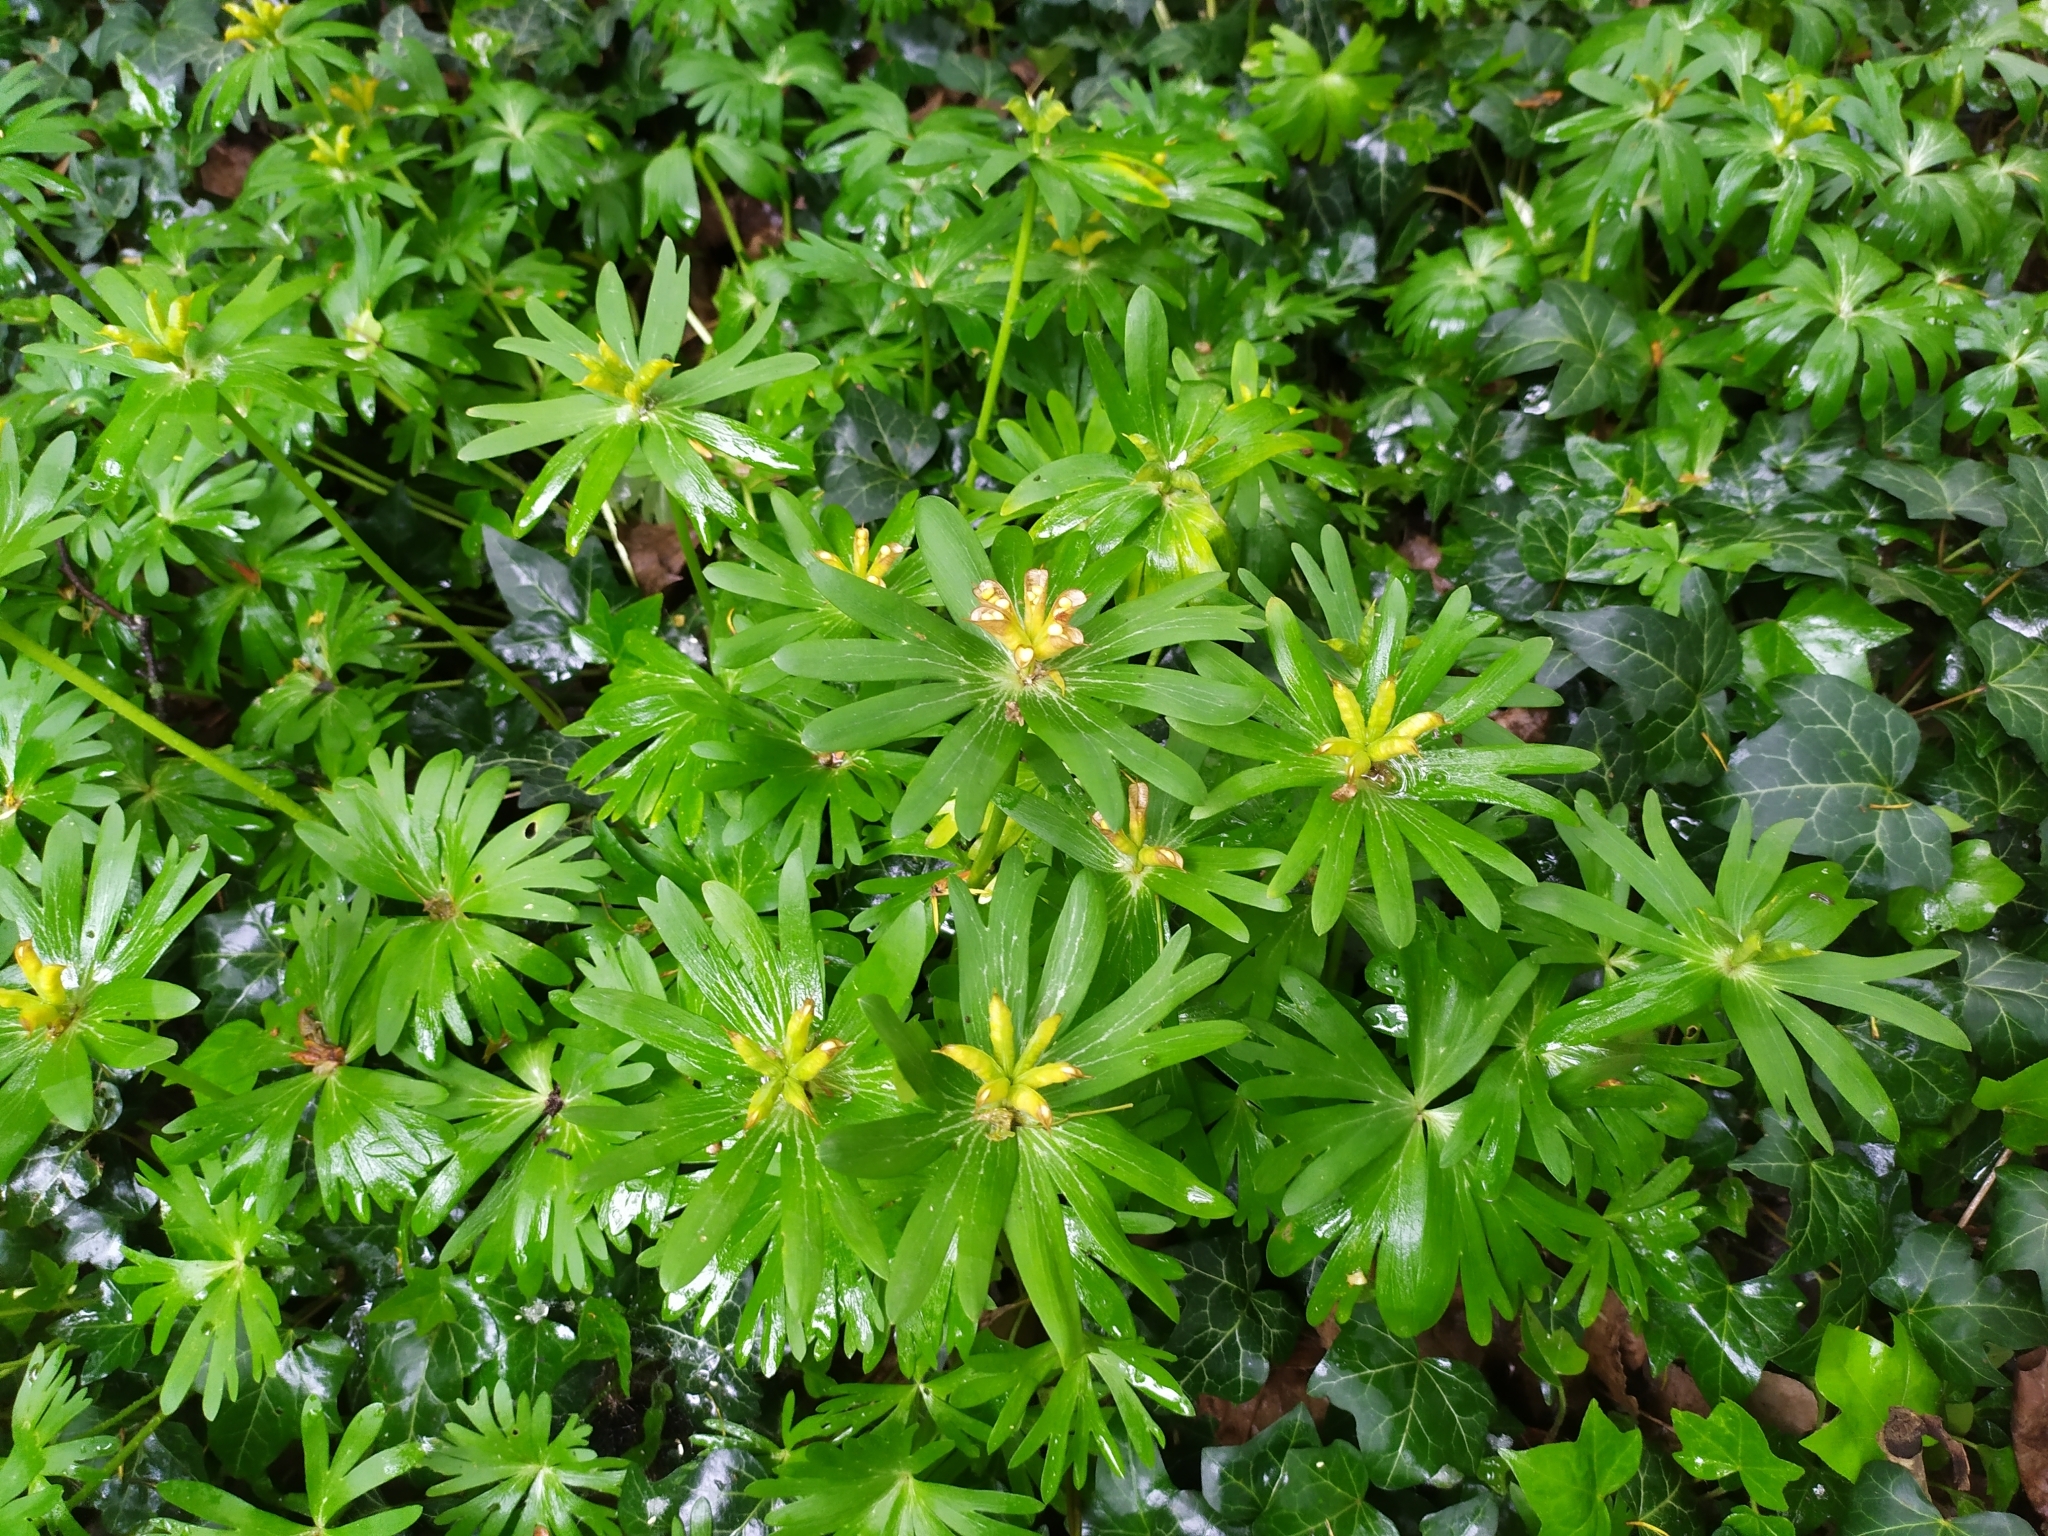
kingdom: Plantae
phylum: Tracheophyta
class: Magnoliopsida
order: Ranunculales
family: Ranunculaceae
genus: Eranthis
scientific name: Eranthis hyemalis
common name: Winter aconite
